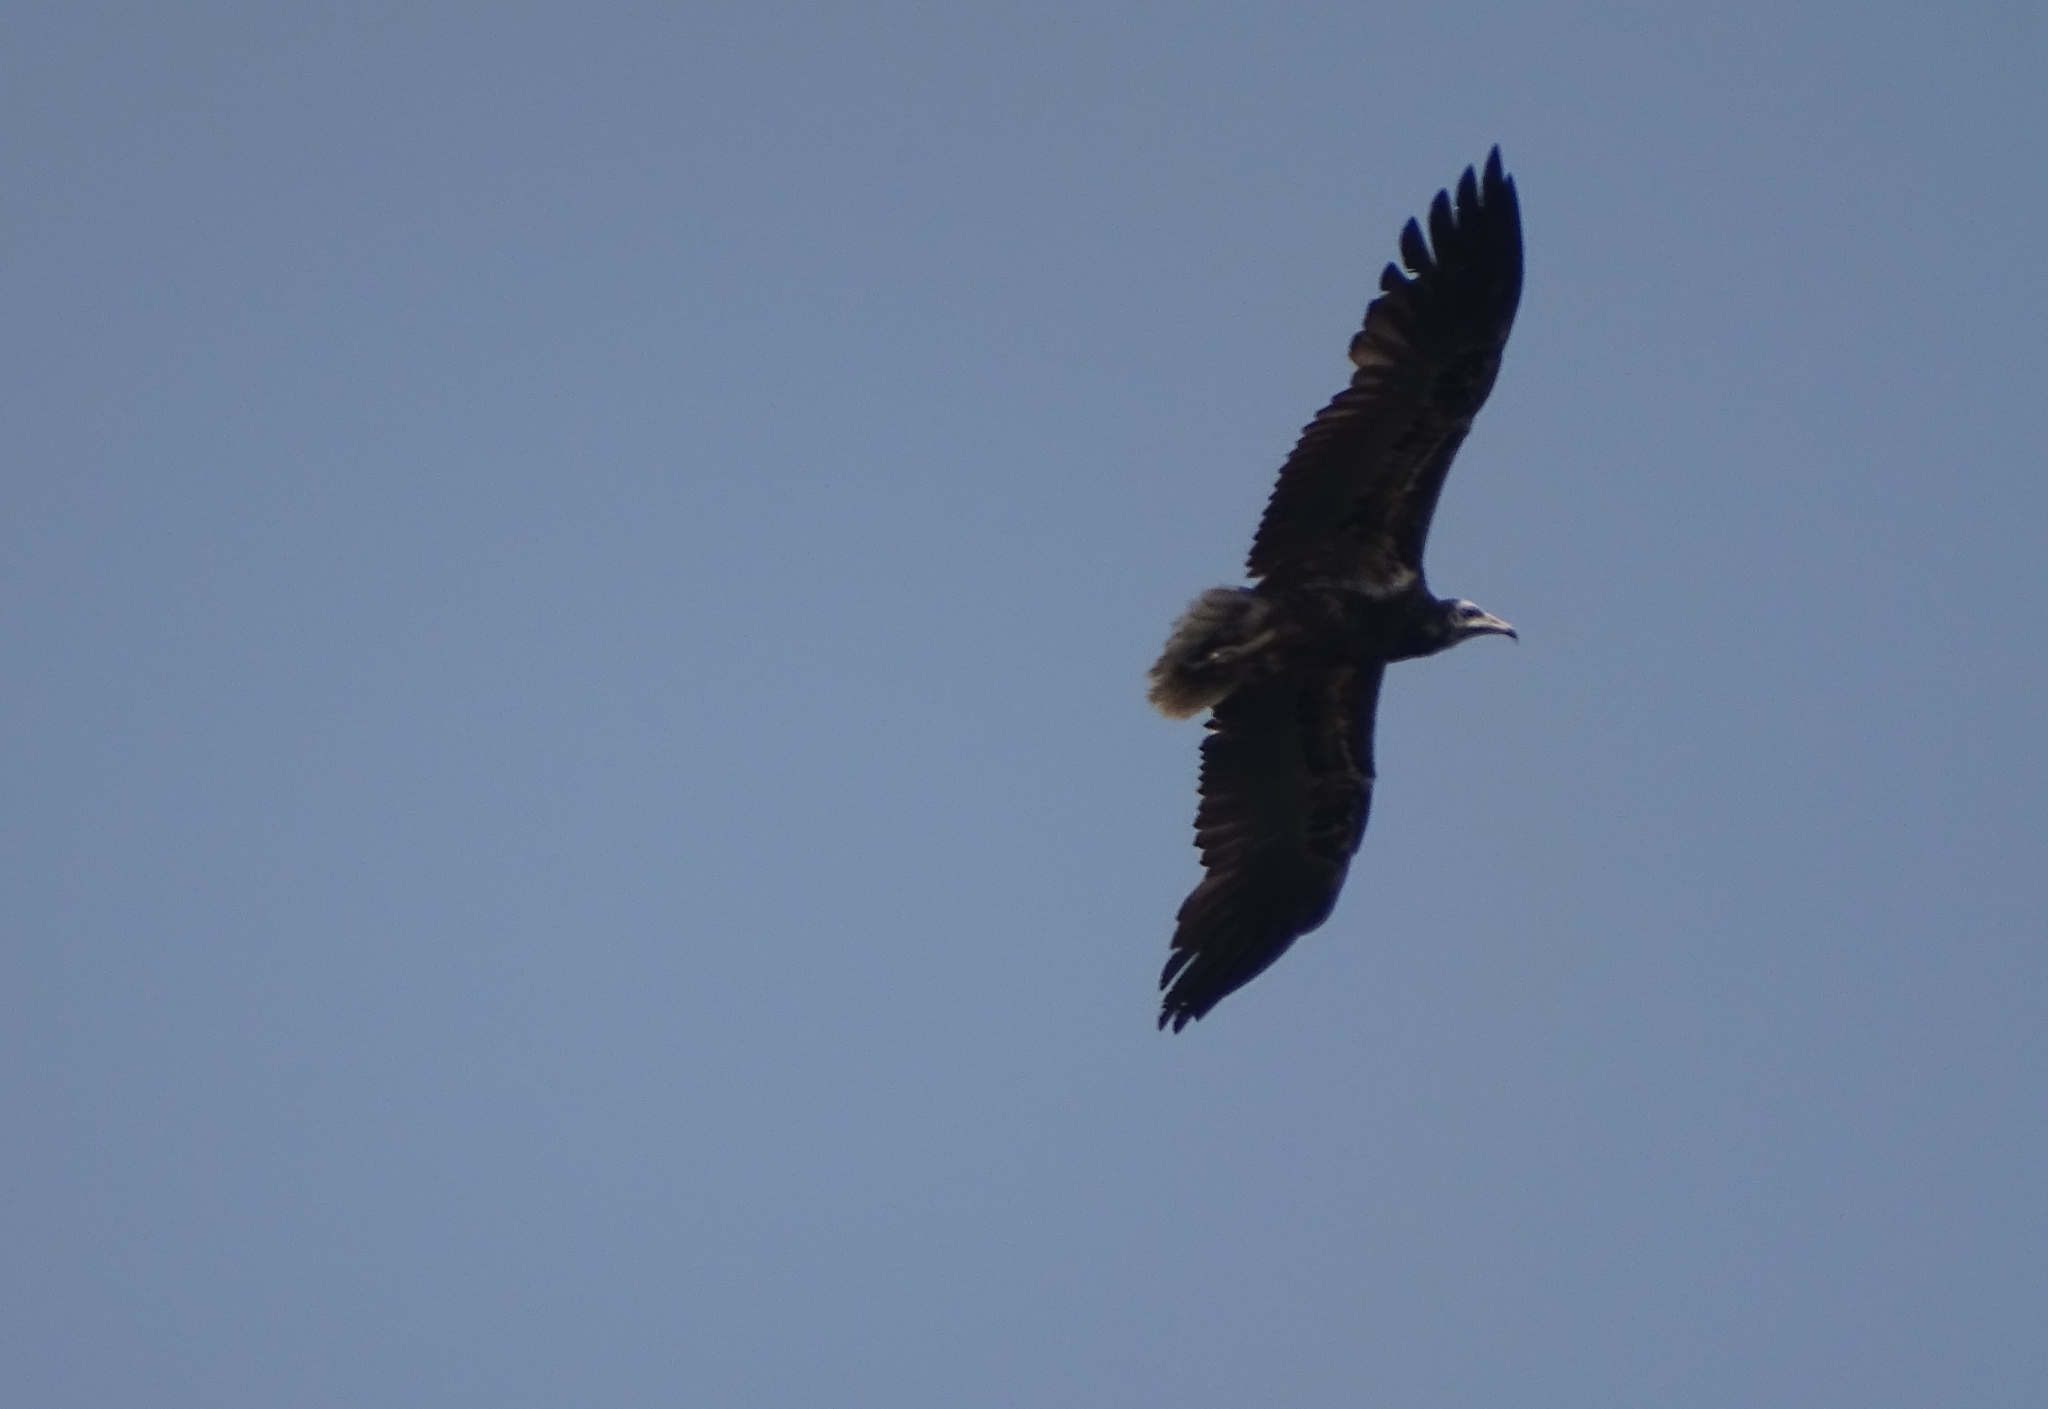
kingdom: Animalia
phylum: Chordata
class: Aves
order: Accipitriformes
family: Accipitridae
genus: Neophron
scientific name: Neophron percnopterus
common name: Egyptian vulture
